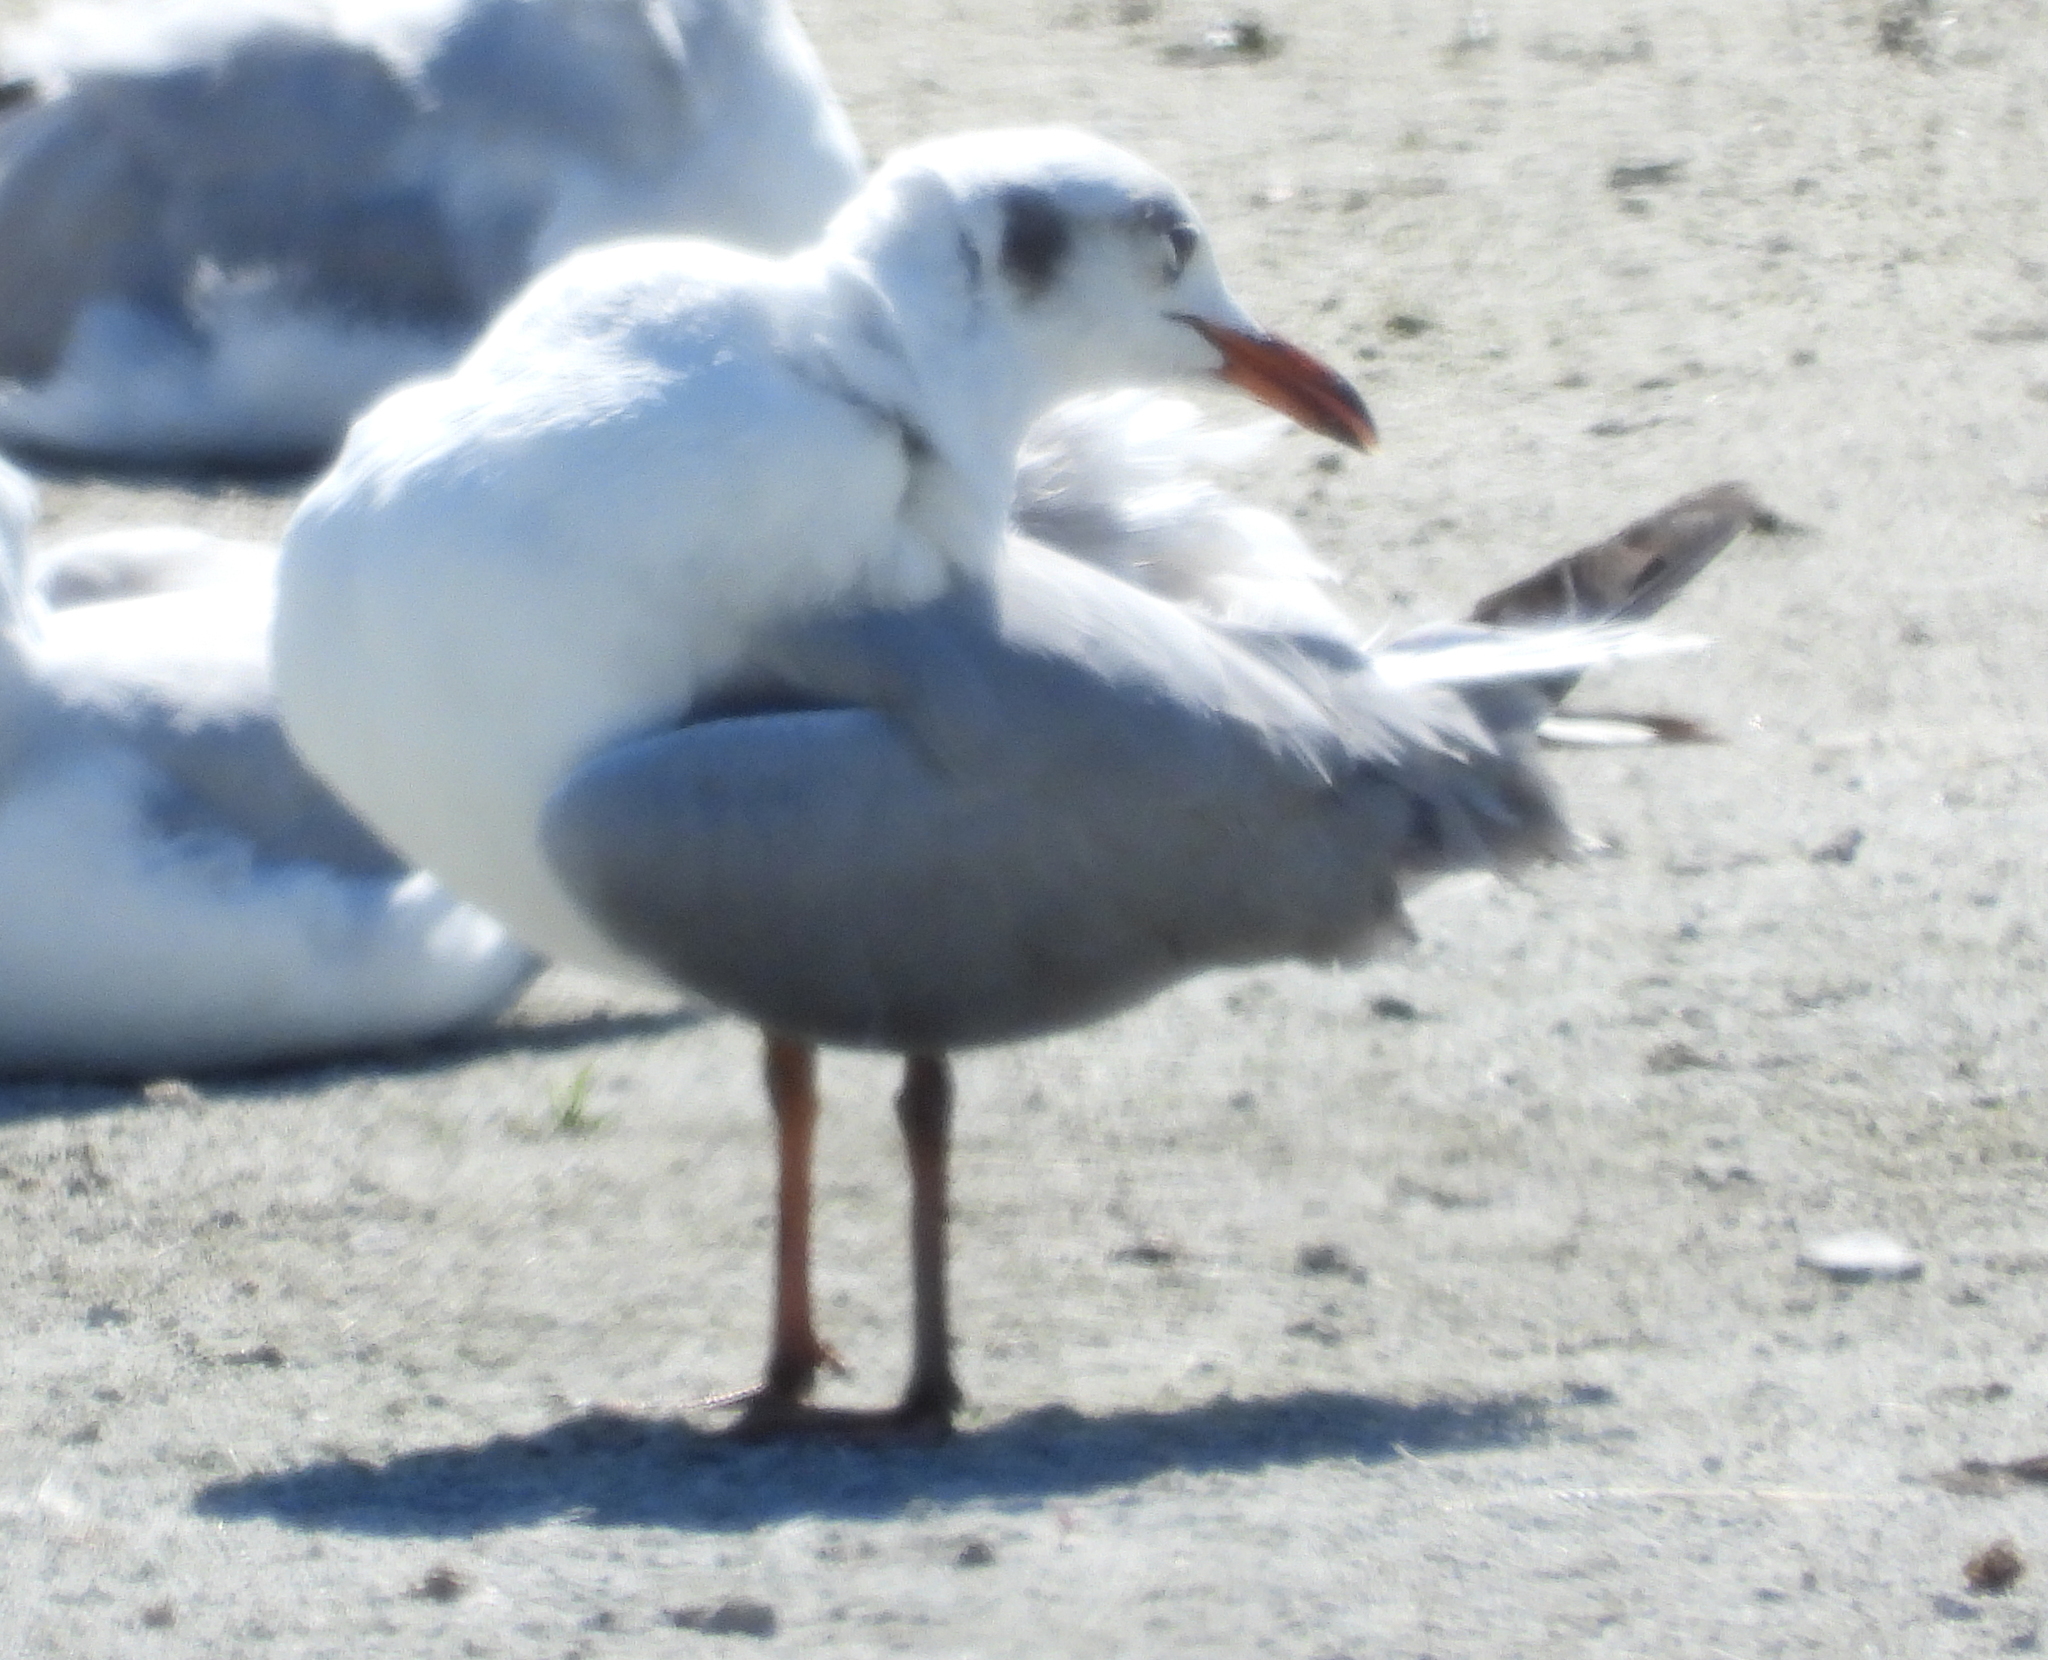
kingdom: Animalia
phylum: Chordata
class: Aves
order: Charadriiformes
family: Laridae
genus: Chroicocephalus
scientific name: Chroicocephalus cirrocephalus
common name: Grey-headed gull
